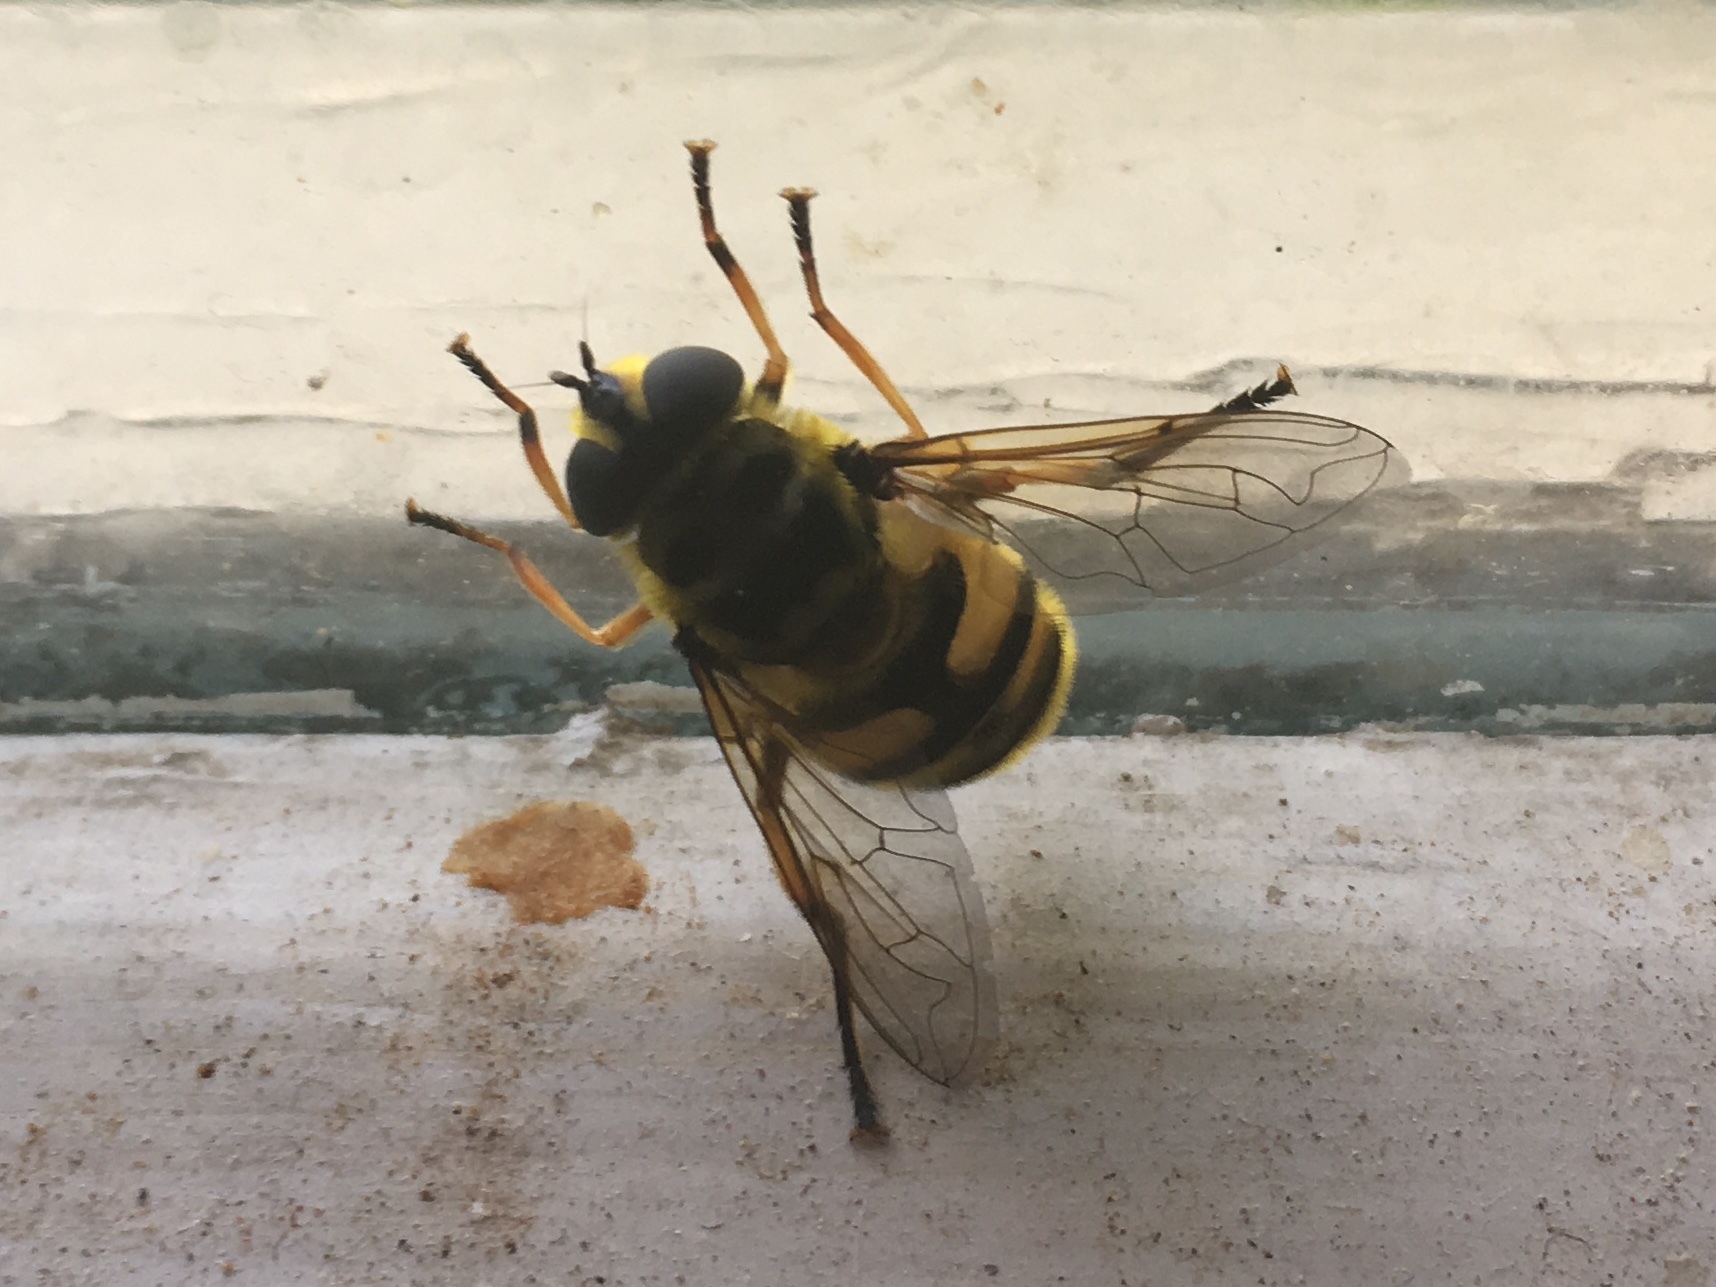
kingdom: Animalia
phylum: Arthropoda
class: Insecta
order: Diptera
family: Syrphidae
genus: Myathropa
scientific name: Myathropa florea
